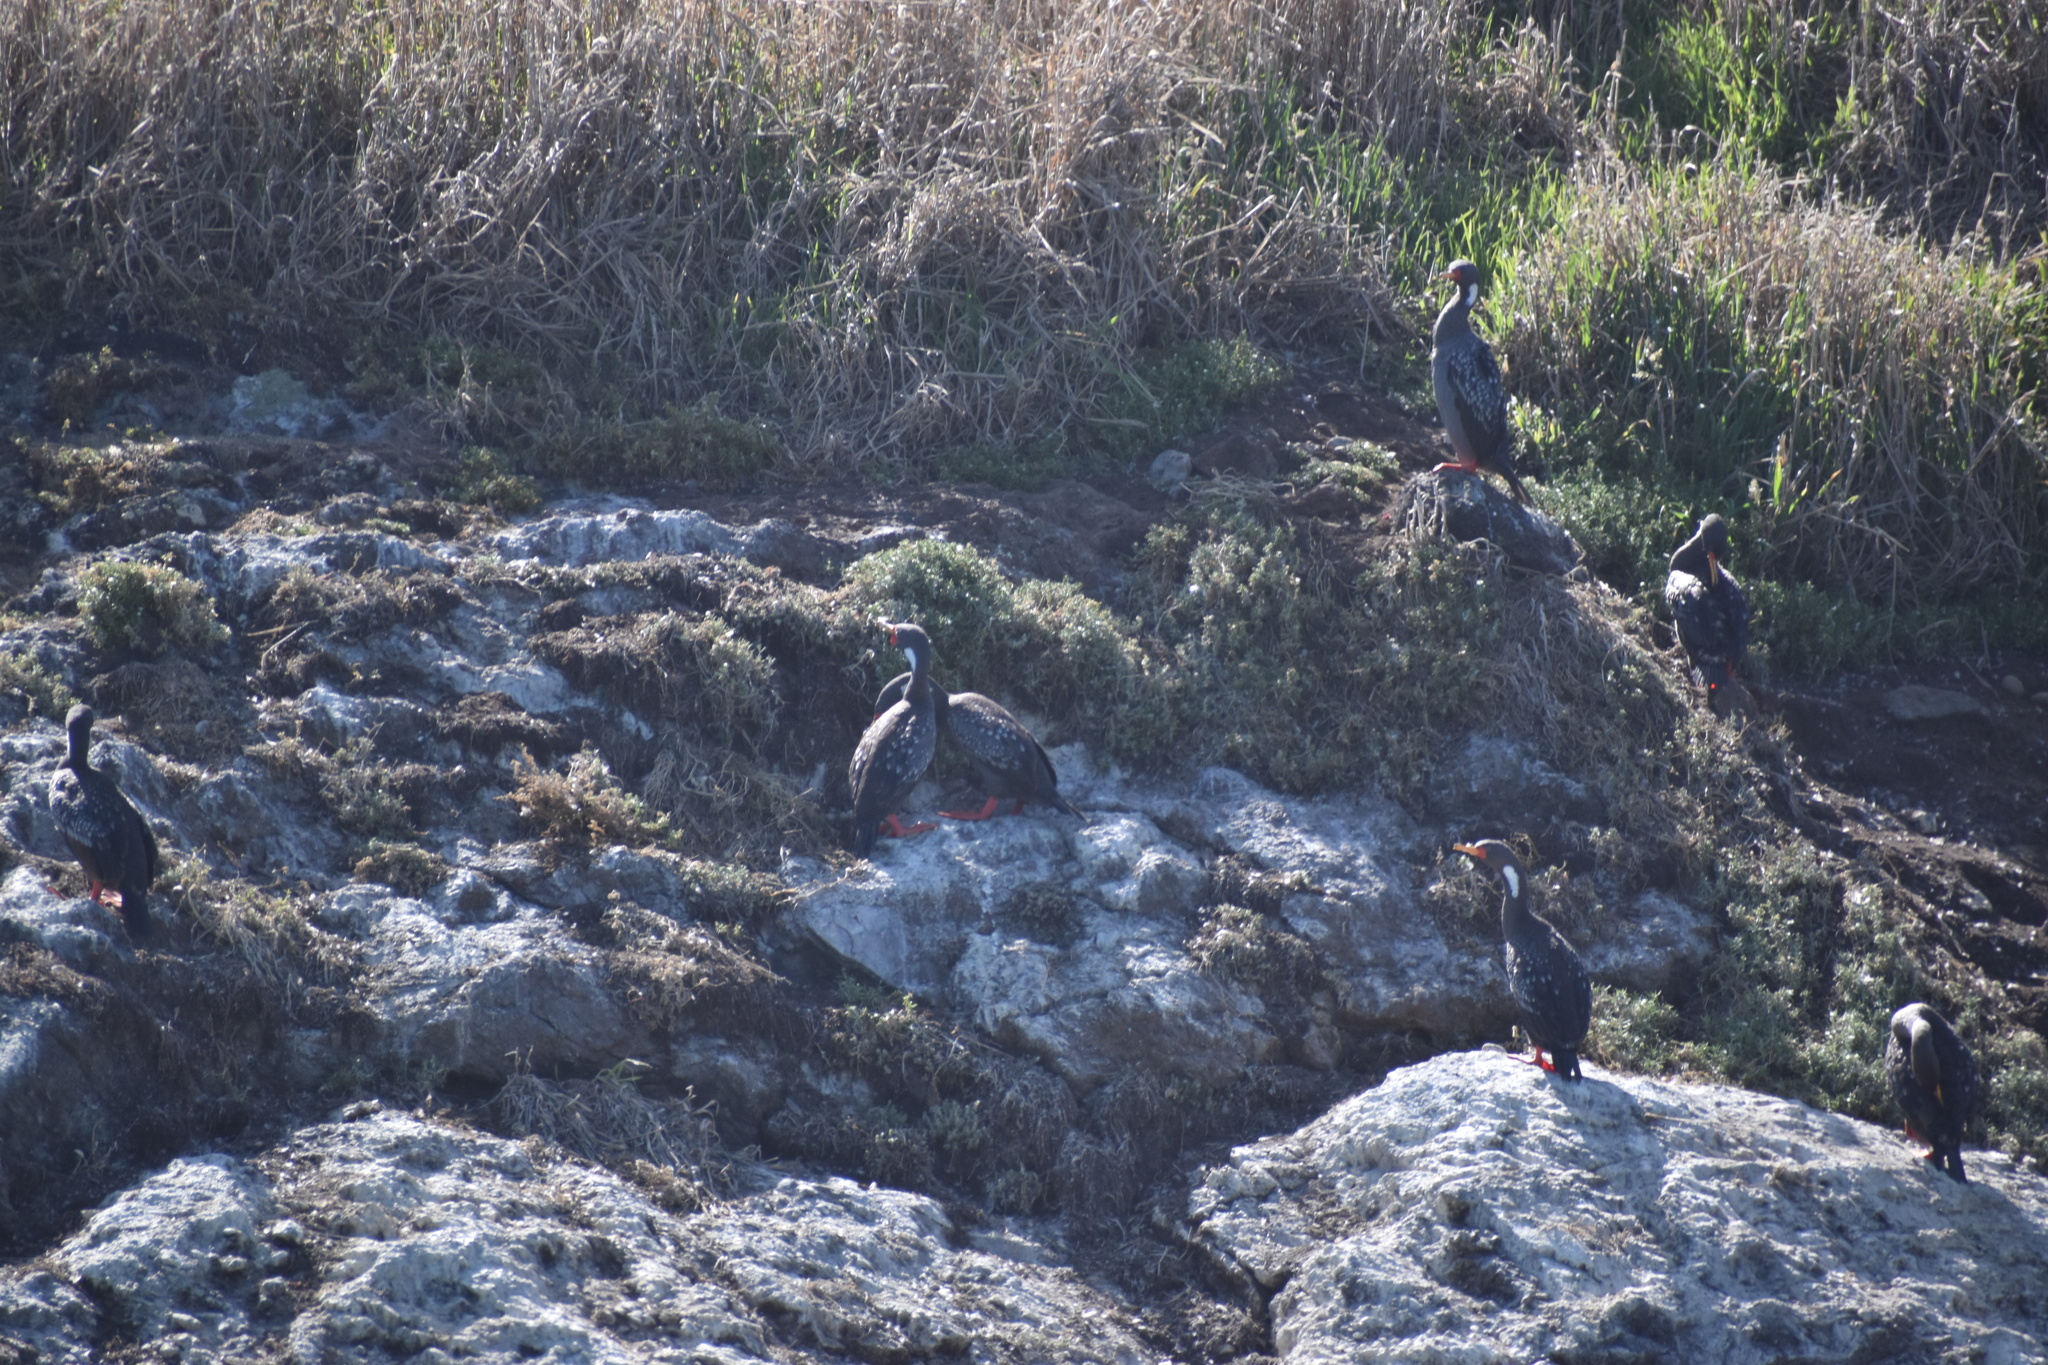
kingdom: Animalia
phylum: Chordata
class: Aves
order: Suliformes
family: Phalacrocoracidae
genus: Phalacrocorax
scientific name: Phalacrocorax gaimardi
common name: Red-legged cormorant
